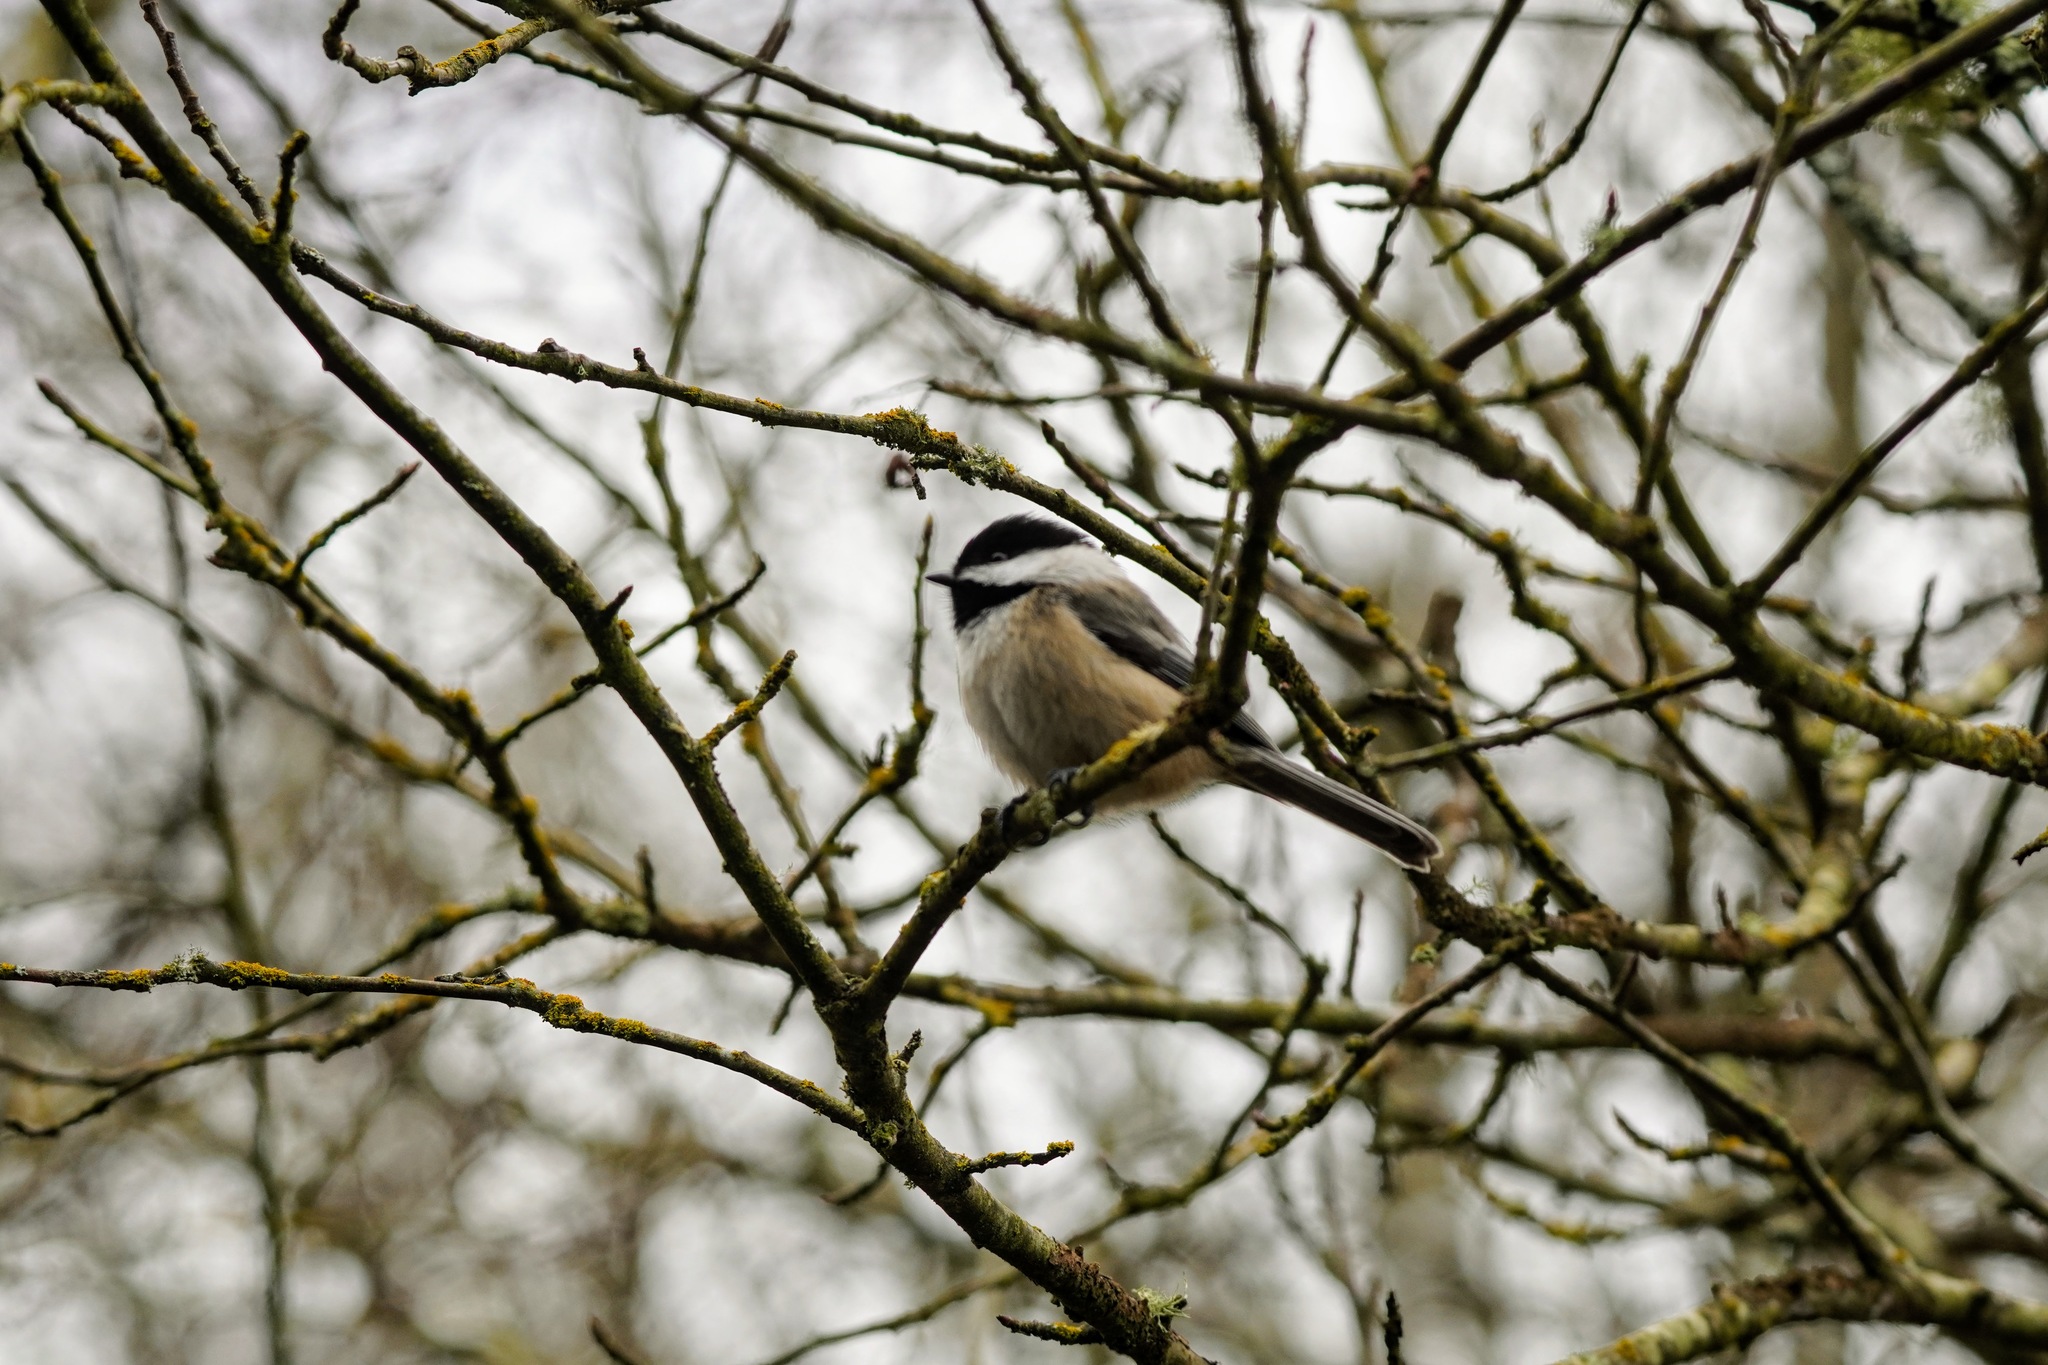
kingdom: Animalia
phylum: Chordata
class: Aves
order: Passeriformes
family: Paridae
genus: Poecile
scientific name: Poecile atricapillus
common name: Black-capped chickadee
